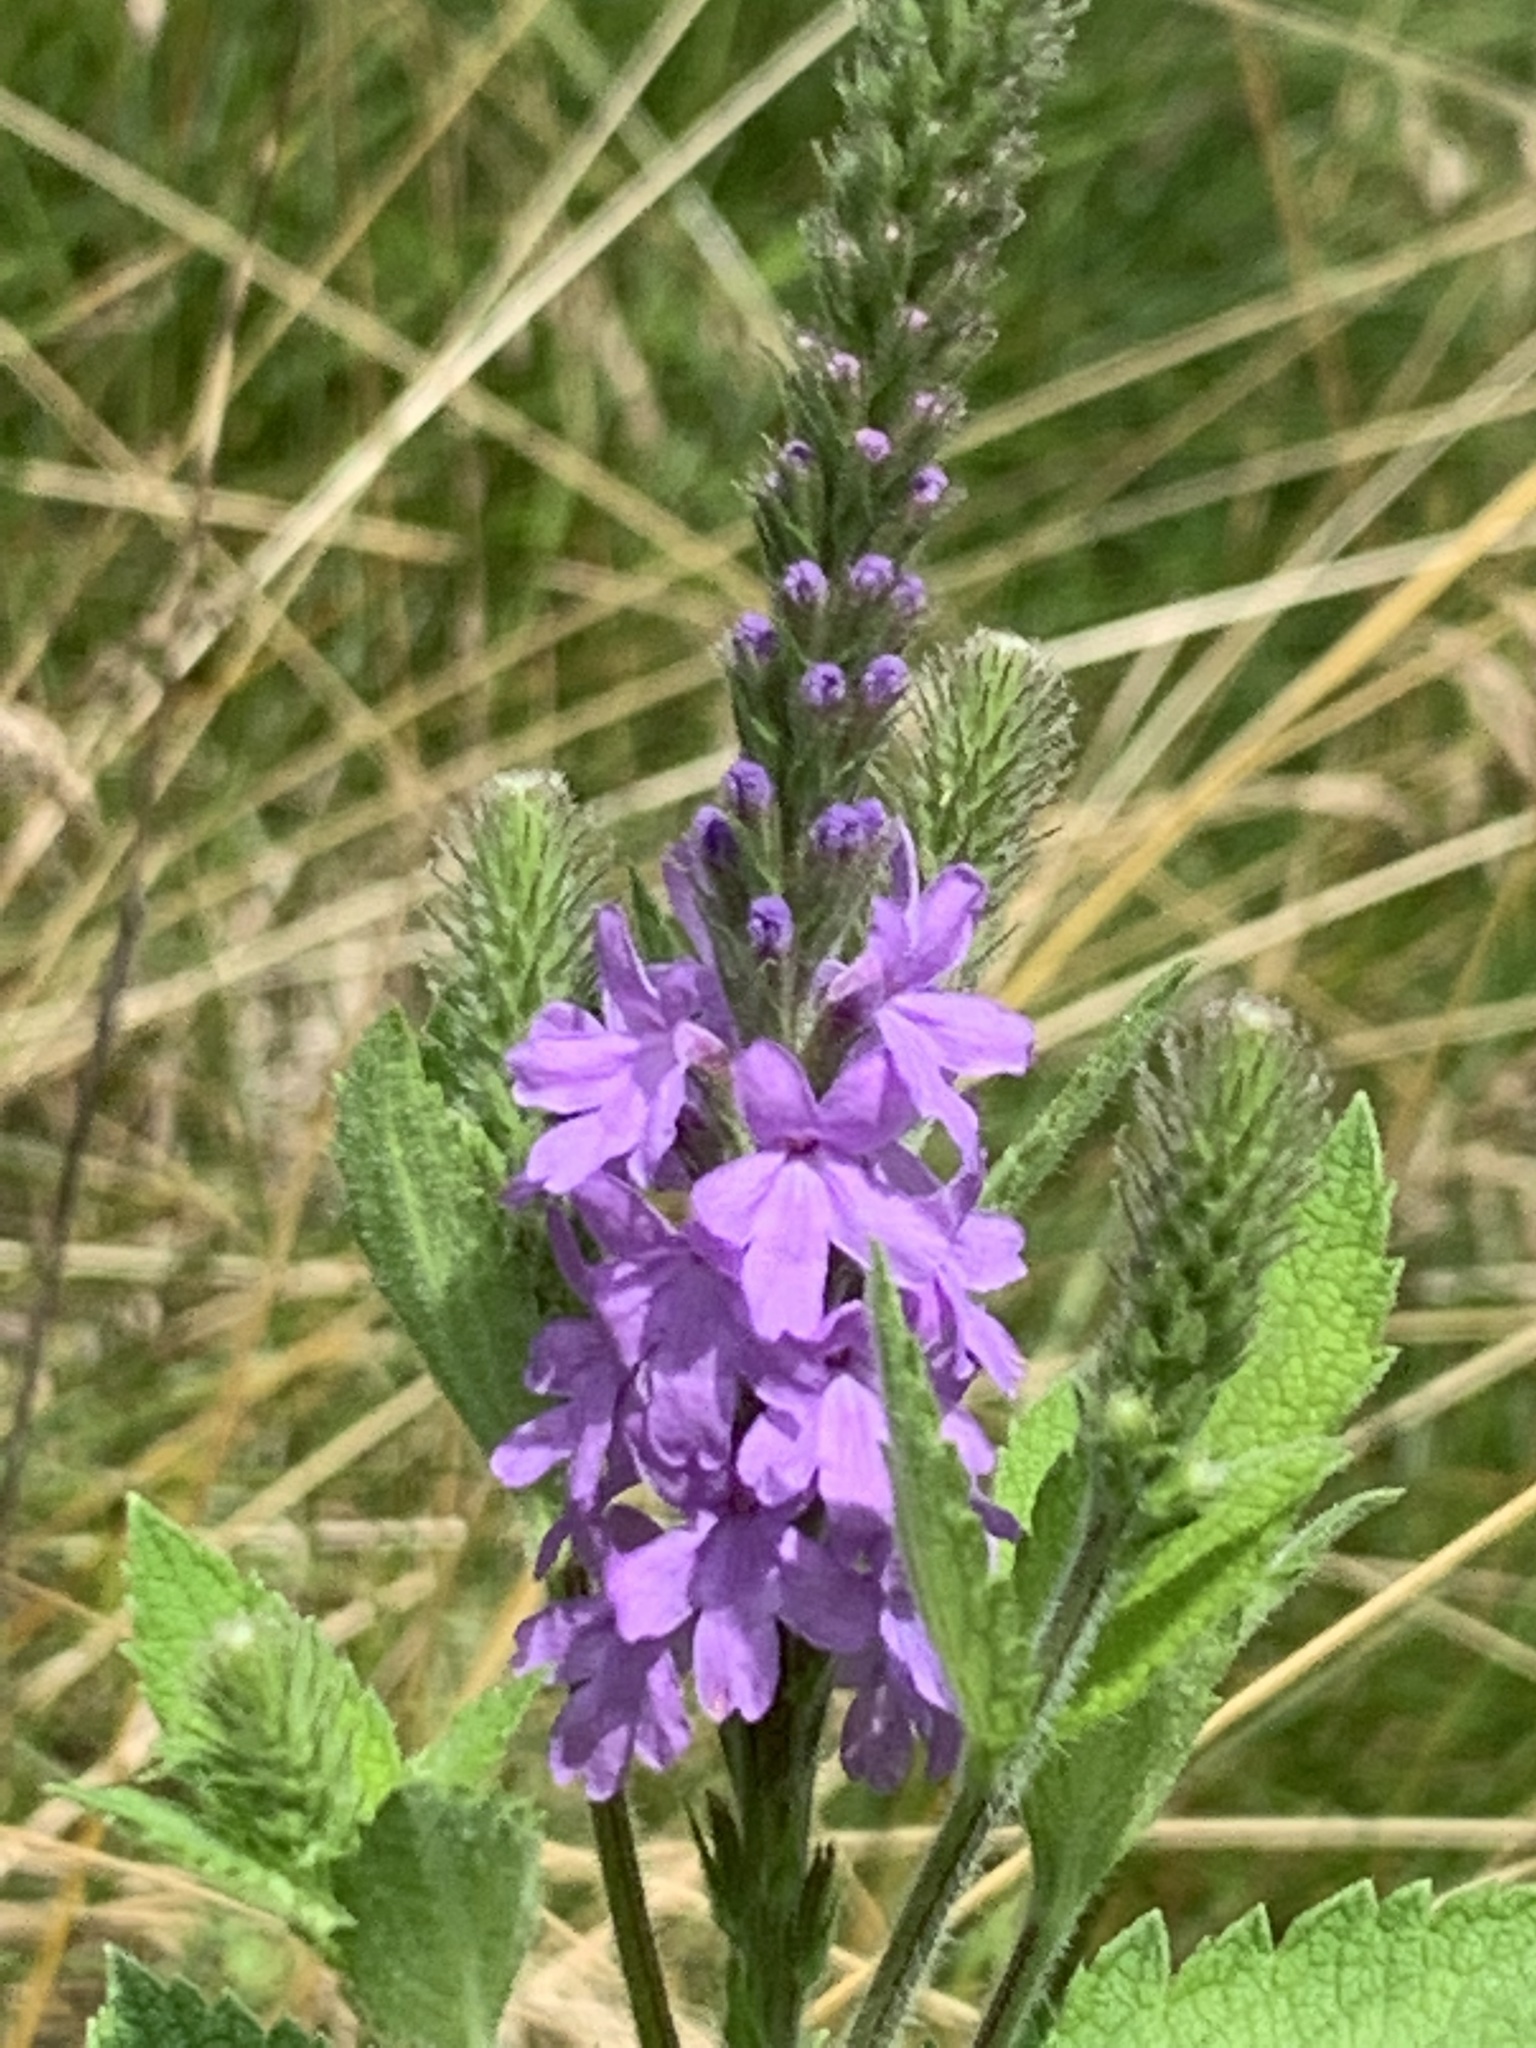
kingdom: Plantae
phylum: Tracheophyta
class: Magnoliopsida
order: Lamiales
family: Verbenaceae
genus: Verbena
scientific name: Verbena stricta
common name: Hoary vervain
